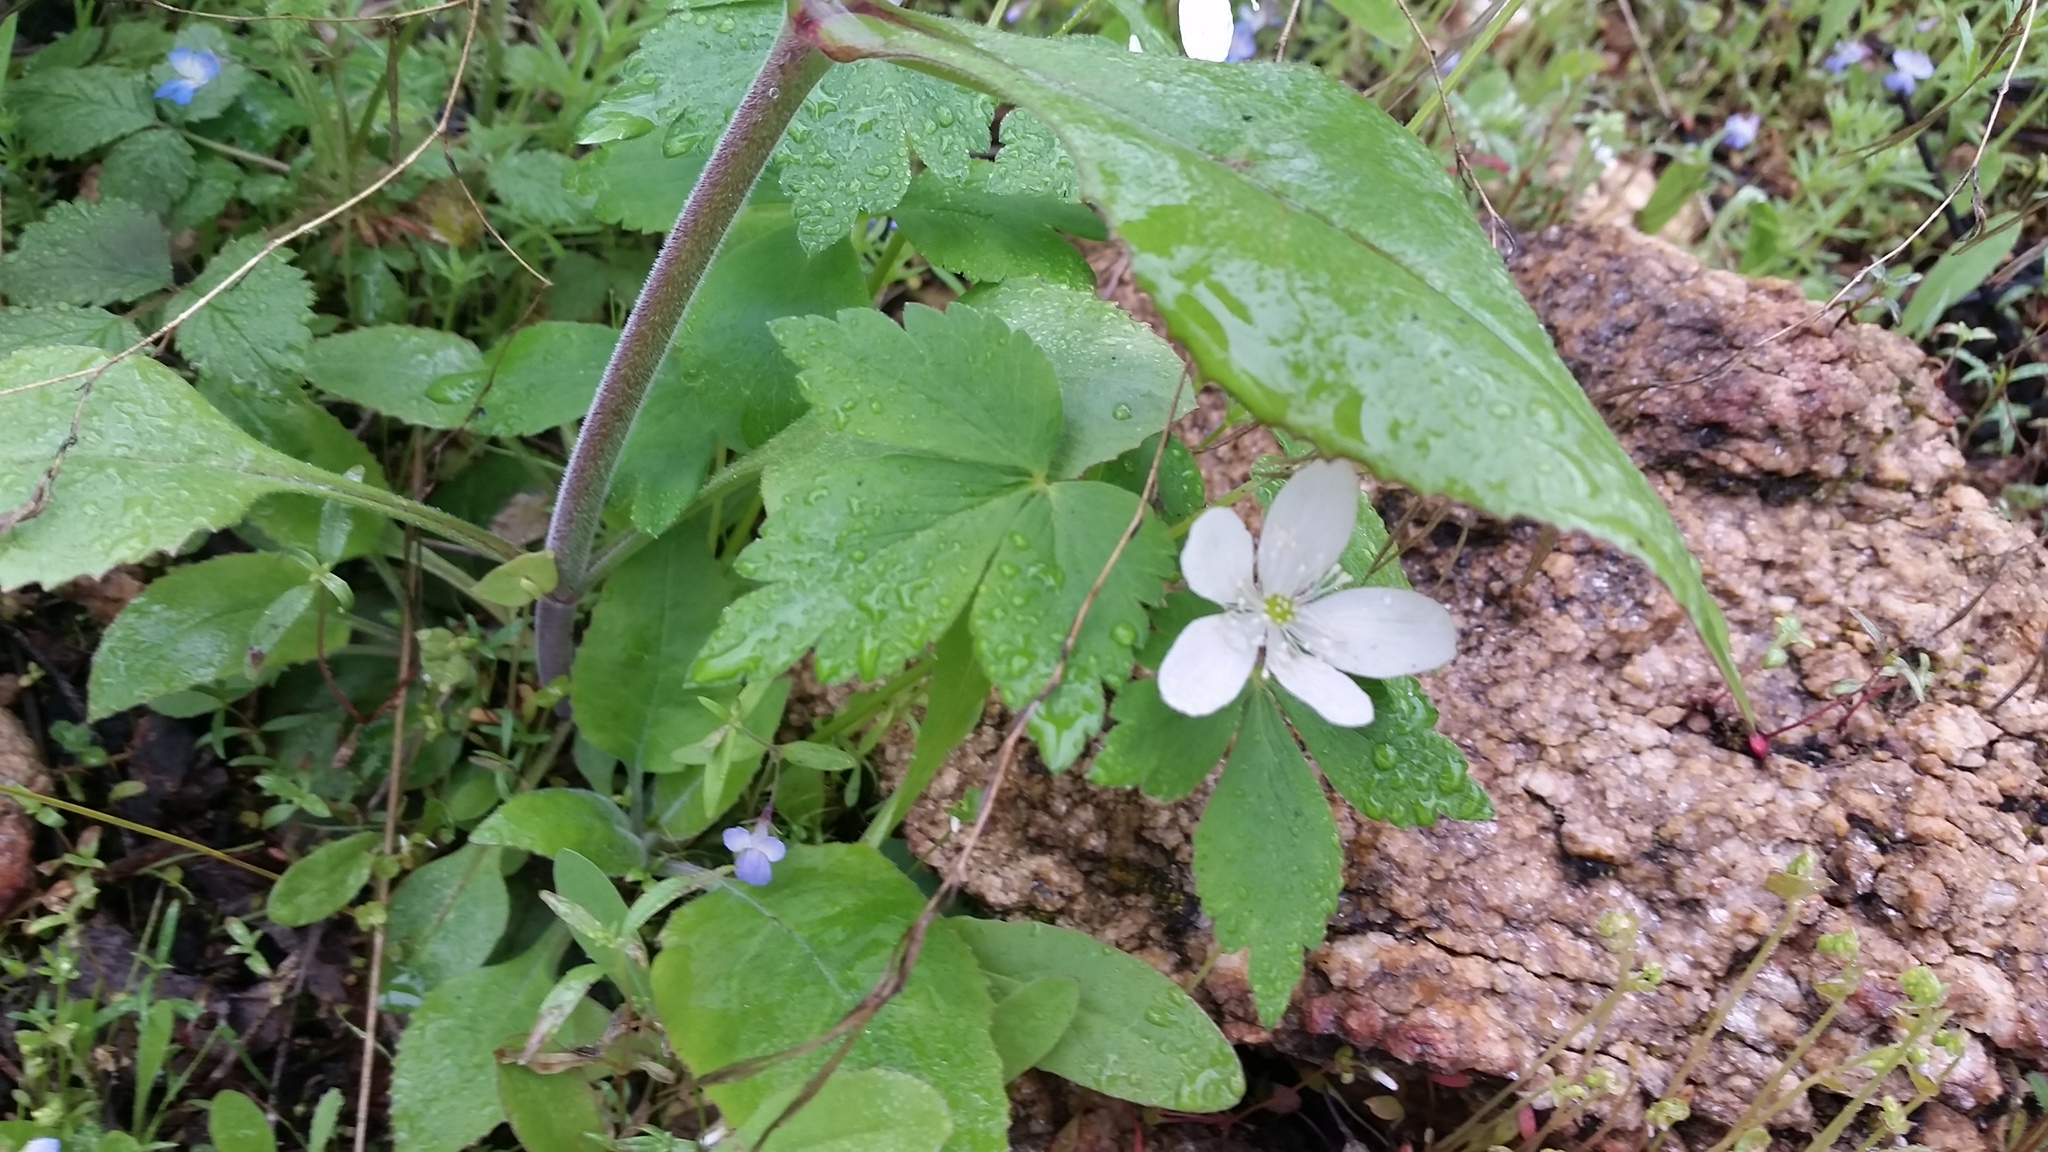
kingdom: Plantae
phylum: Tracheophyta
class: Magnoliopsida
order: Ranunculales
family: Ranunculaceae
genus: Anemone
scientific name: Anemone piperi
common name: Piper's anemone
